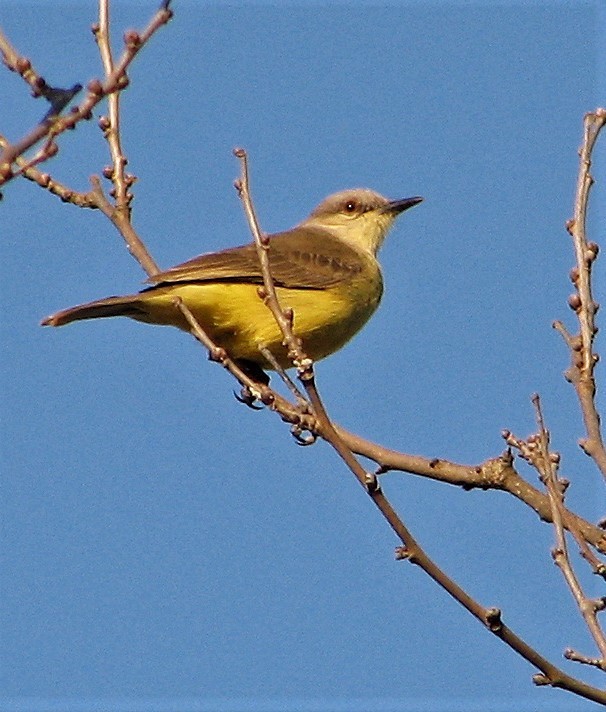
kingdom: Animalia
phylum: Chordata
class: Aves
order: Passeriformes
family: Tyrannidae
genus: Machetornis
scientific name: Machetornis rixosa
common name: Cattle tyrant
